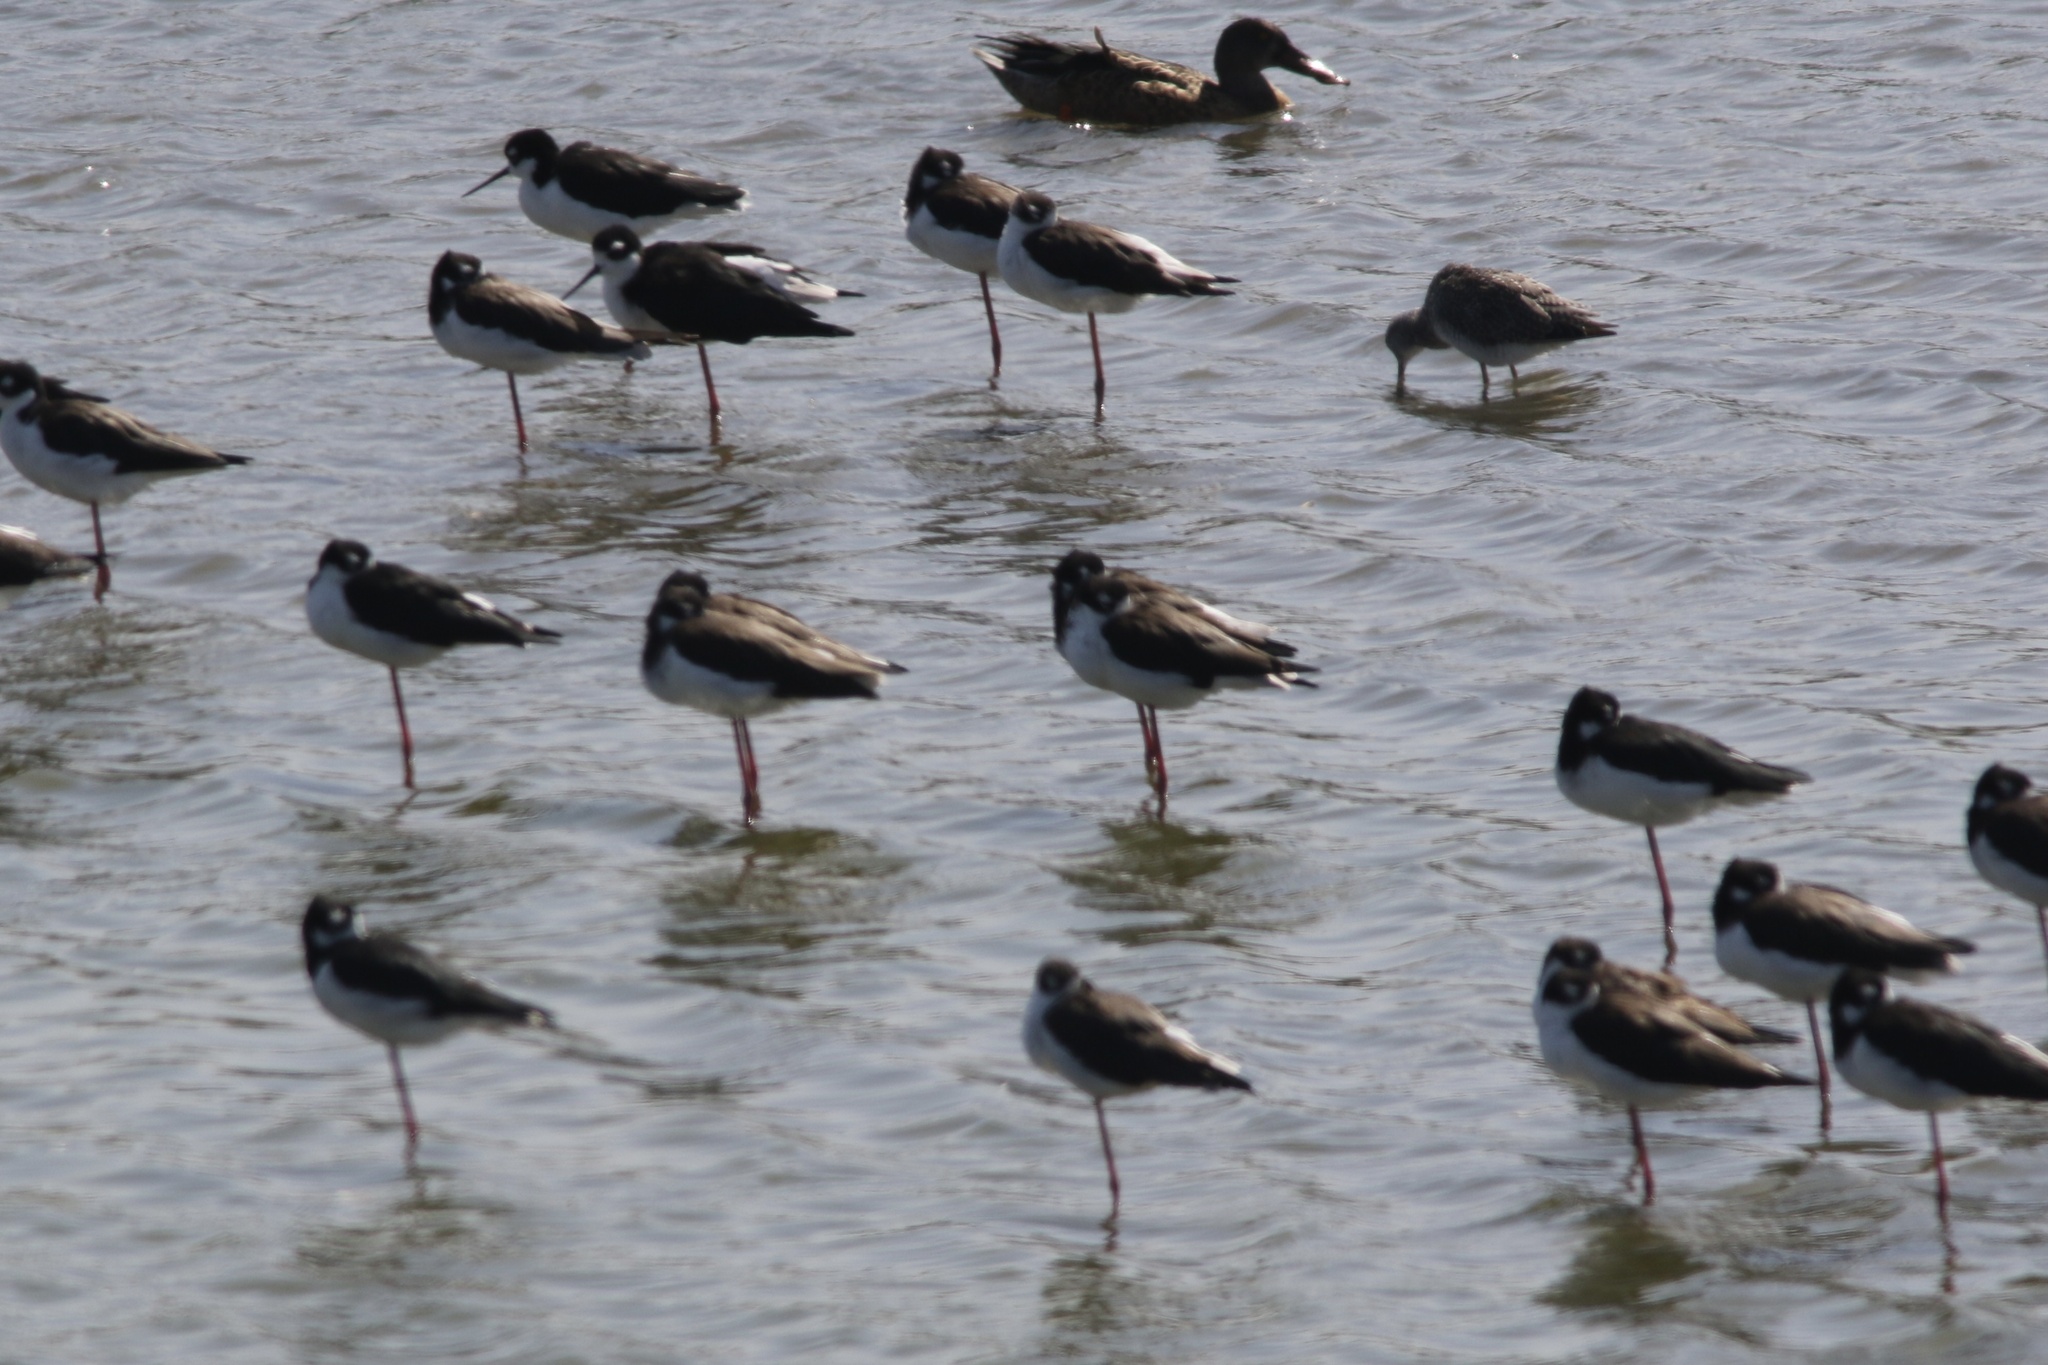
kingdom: Animalia
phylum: Chordata
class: Aves
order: Charadriiformes
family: Recurvirostridae
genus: Himantopus
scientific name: Himantopus mexicanus
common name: Black-necked stilt
